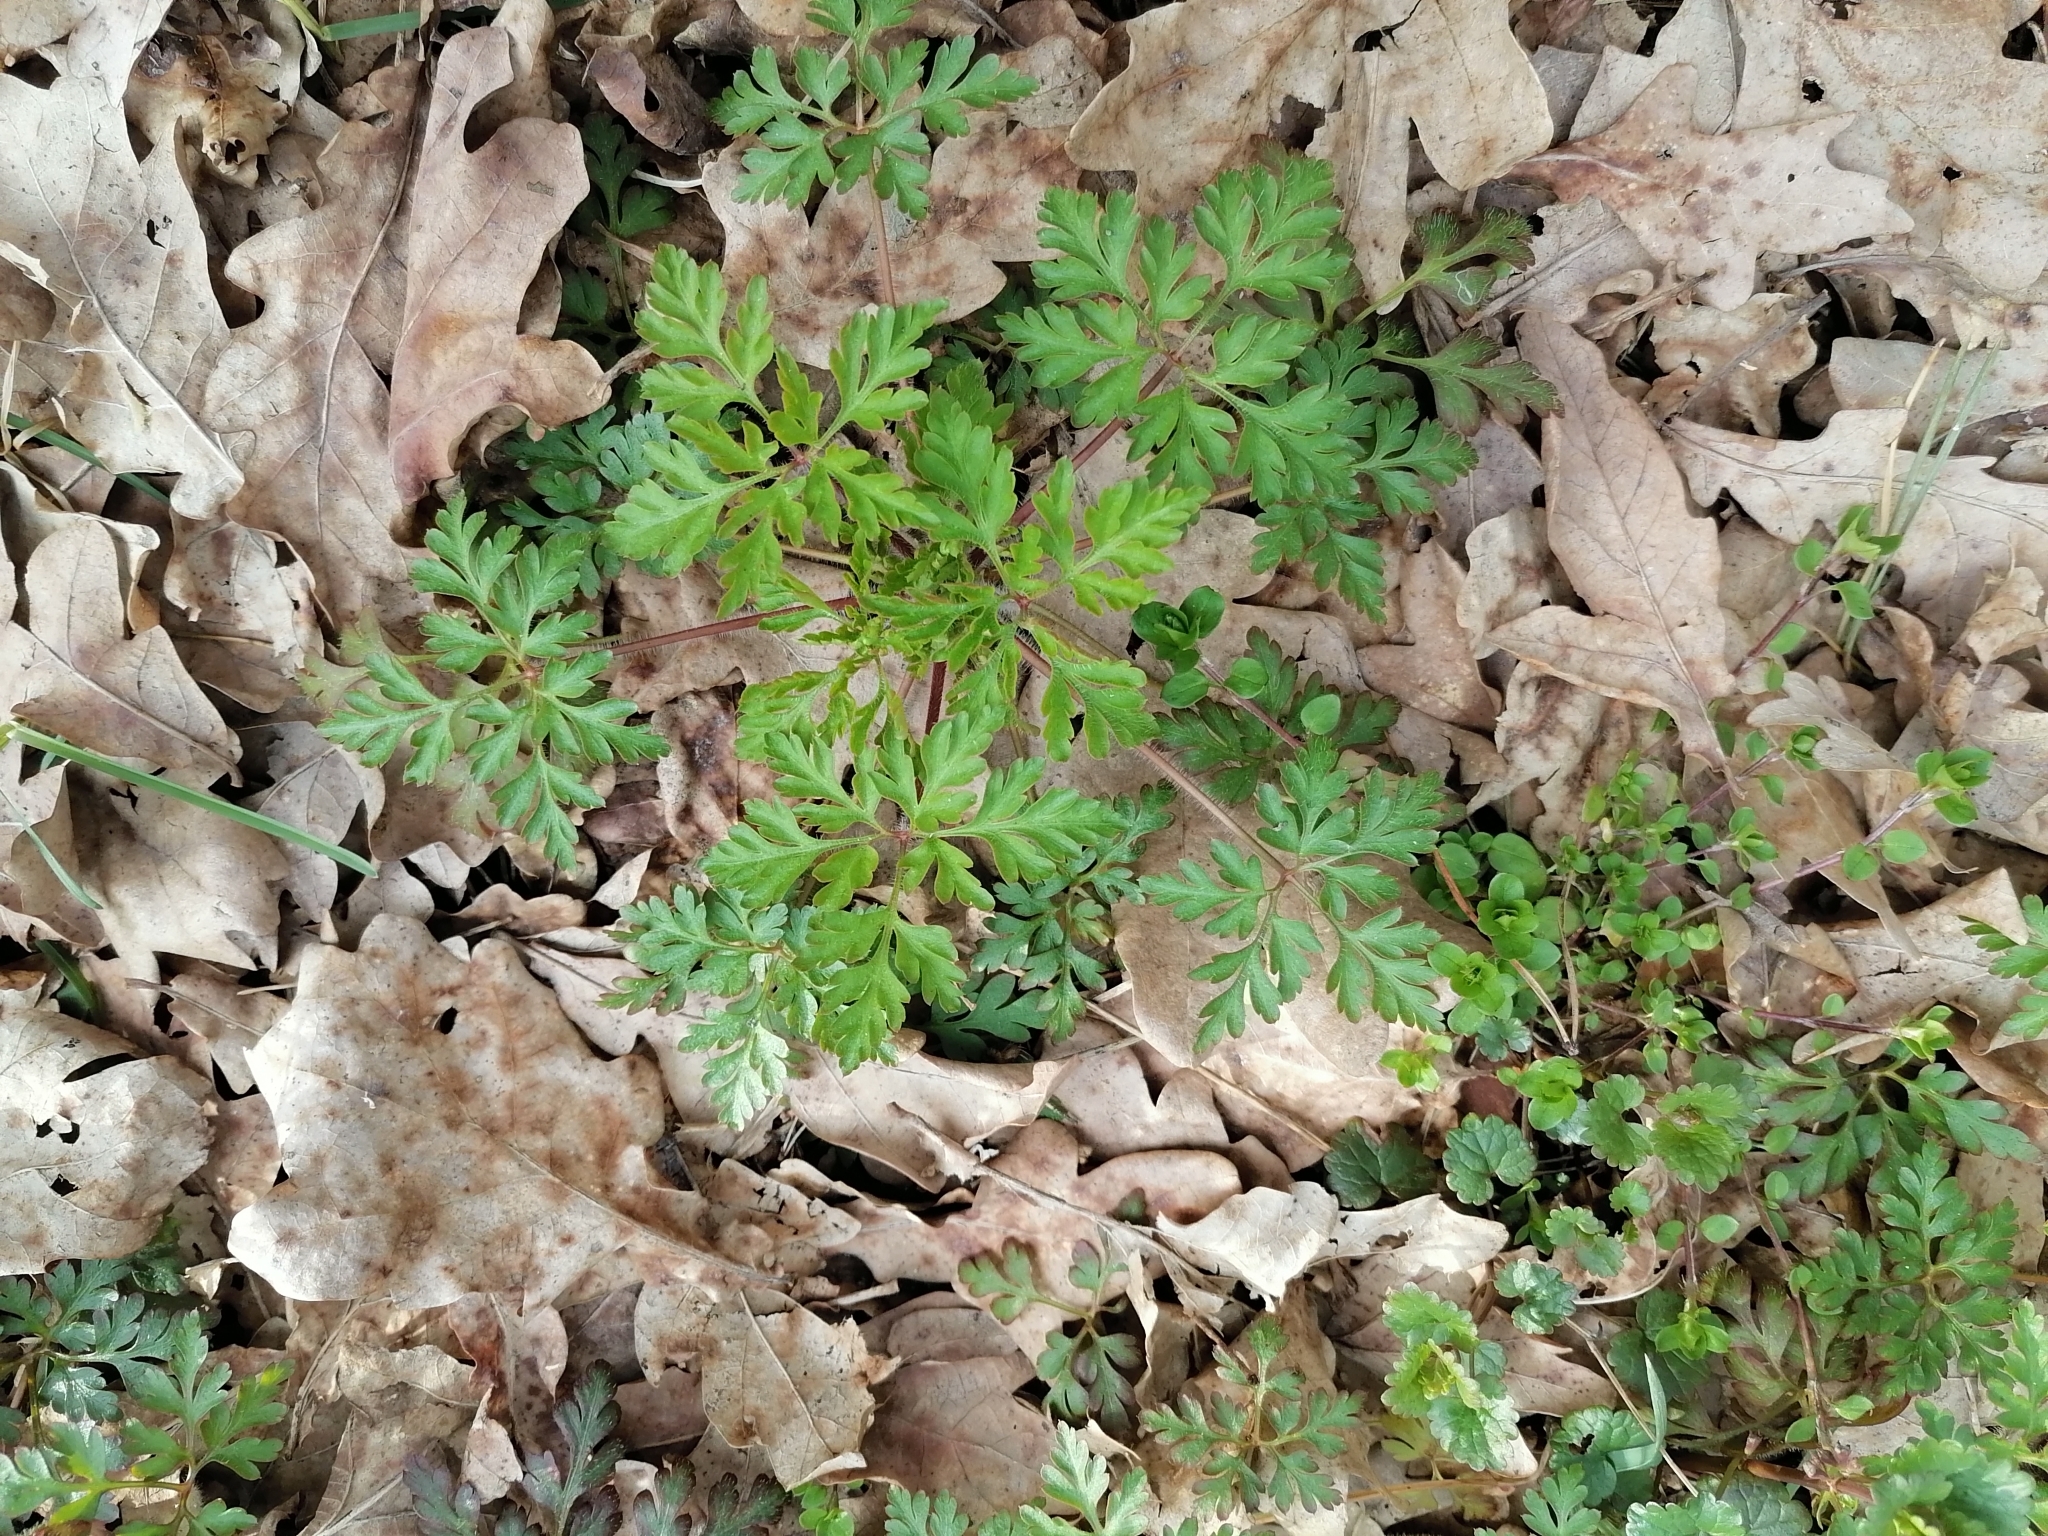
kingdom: Plantae
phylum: Tracheophyta
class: Magnoliopsida
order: Geraniales
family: Geraniaceae
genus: Geranium
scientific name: Geranium robertianum
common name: Herb-robert
